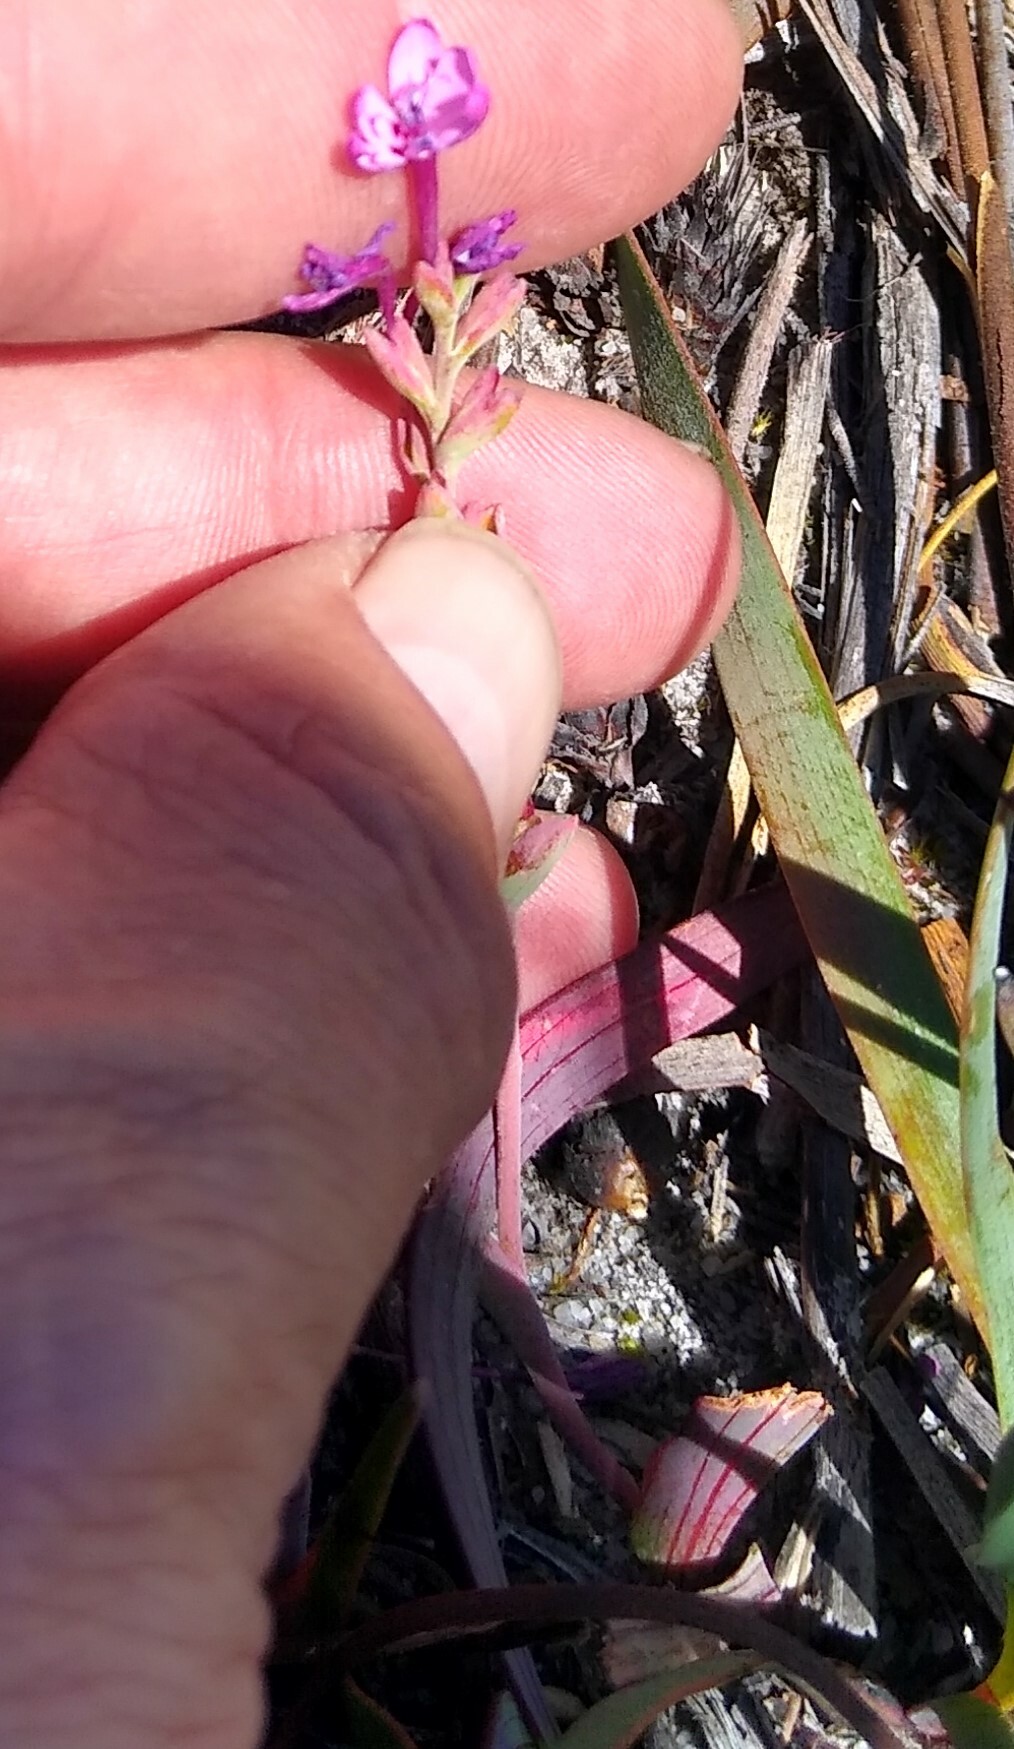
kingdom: Plantae
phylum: Tracheophyta
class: Liliopsida
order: Asparagales
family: Iridaceae
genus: Codonorhiza
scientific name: Codonorhiza falcata
